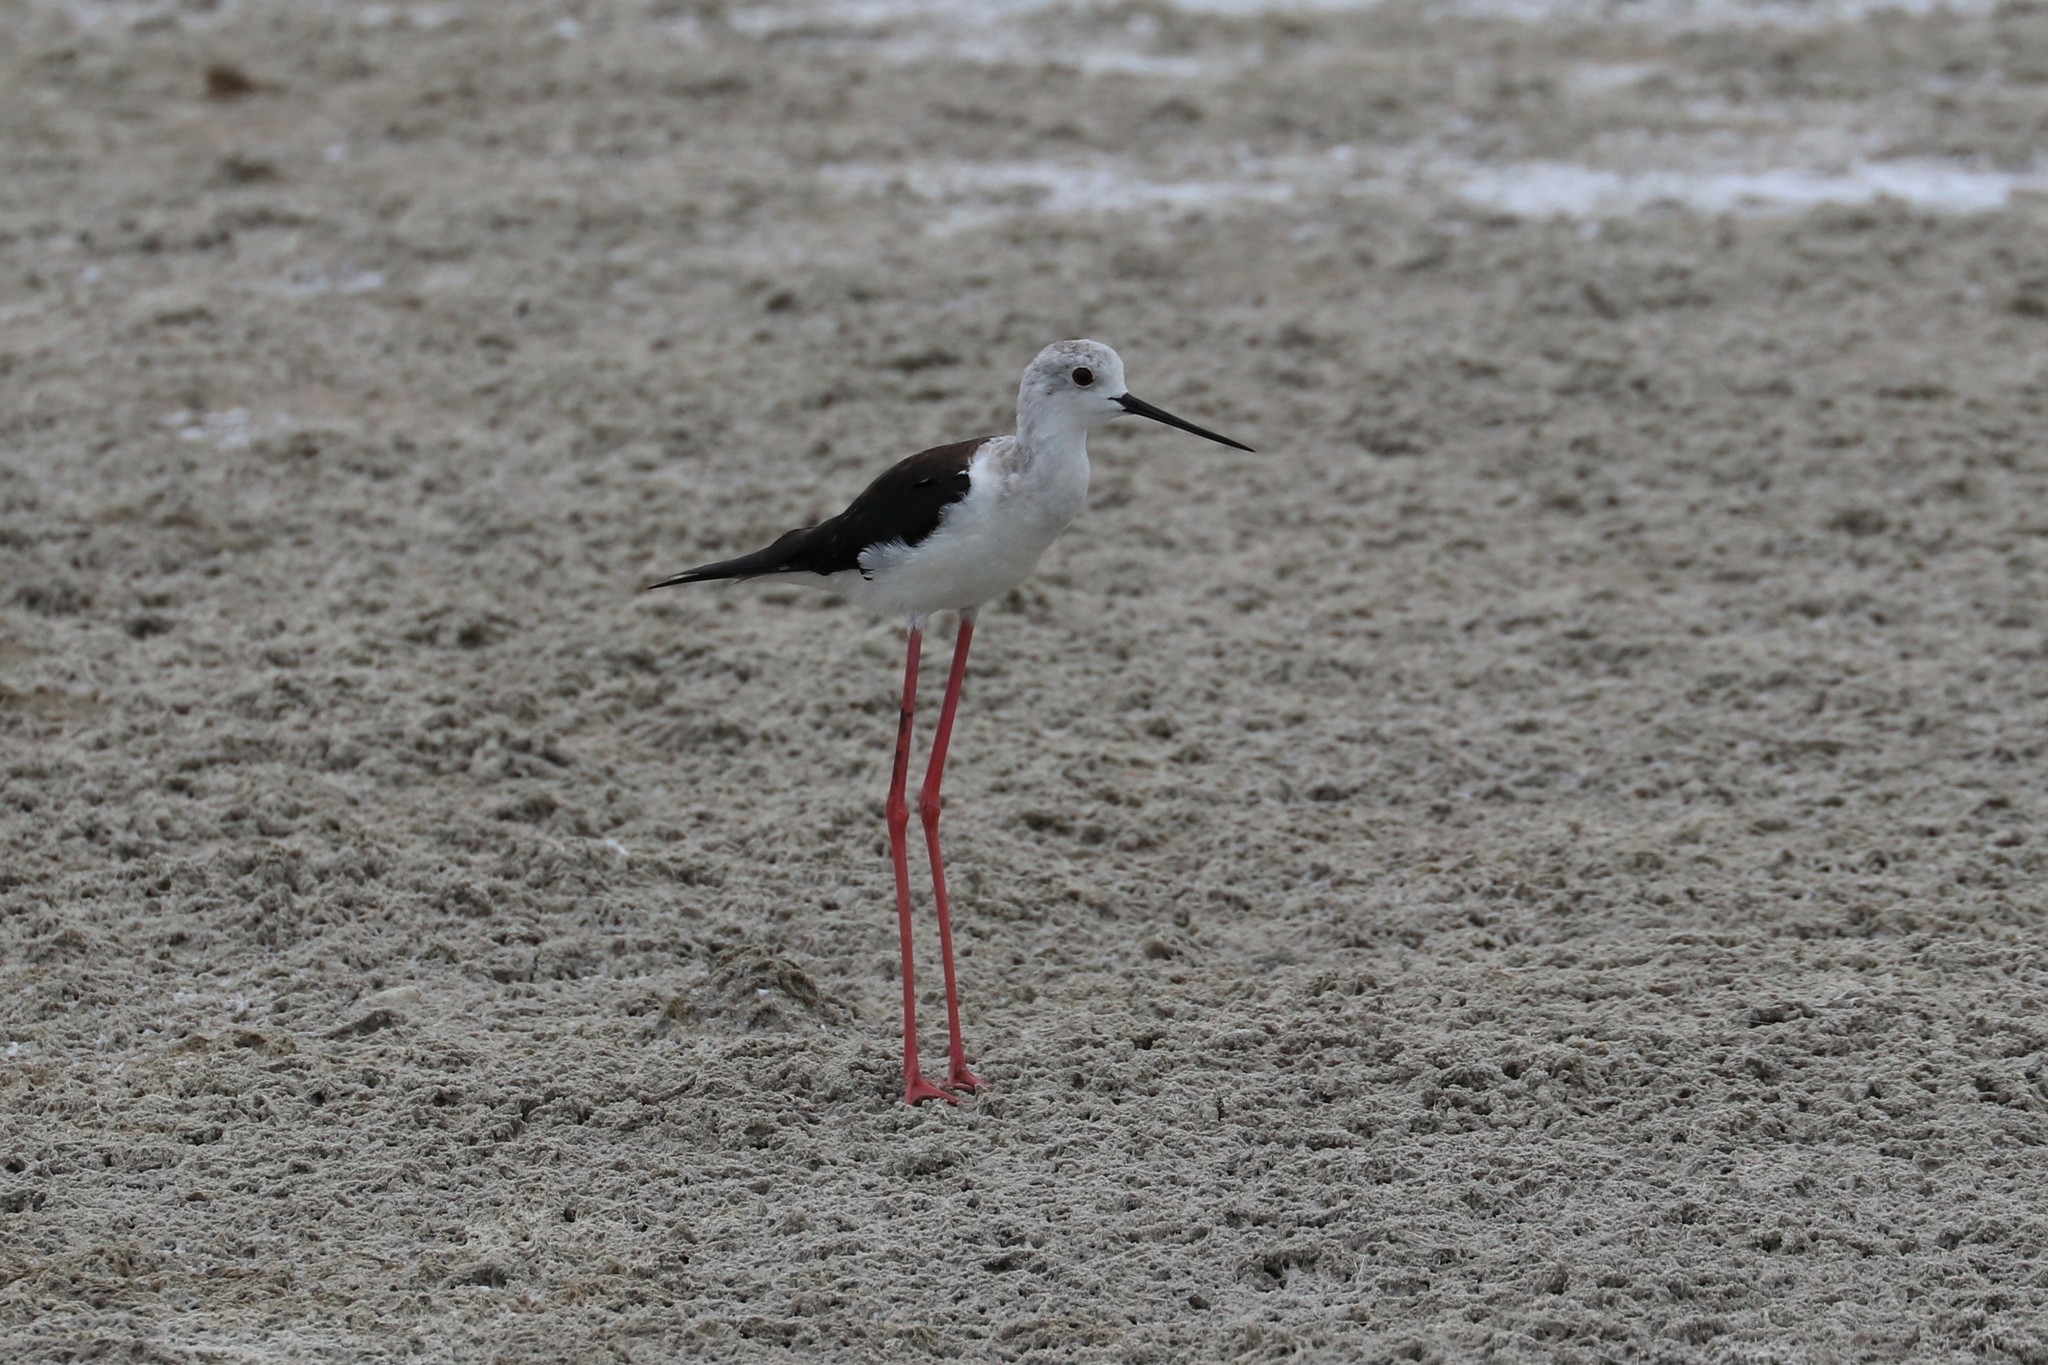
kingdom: Animalia
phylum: Chordata
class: Aves
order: Charadriiformes
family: Recurvirostridae
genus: Himantopus
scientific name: Himantopus himantopus
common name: Black-winged stilt
